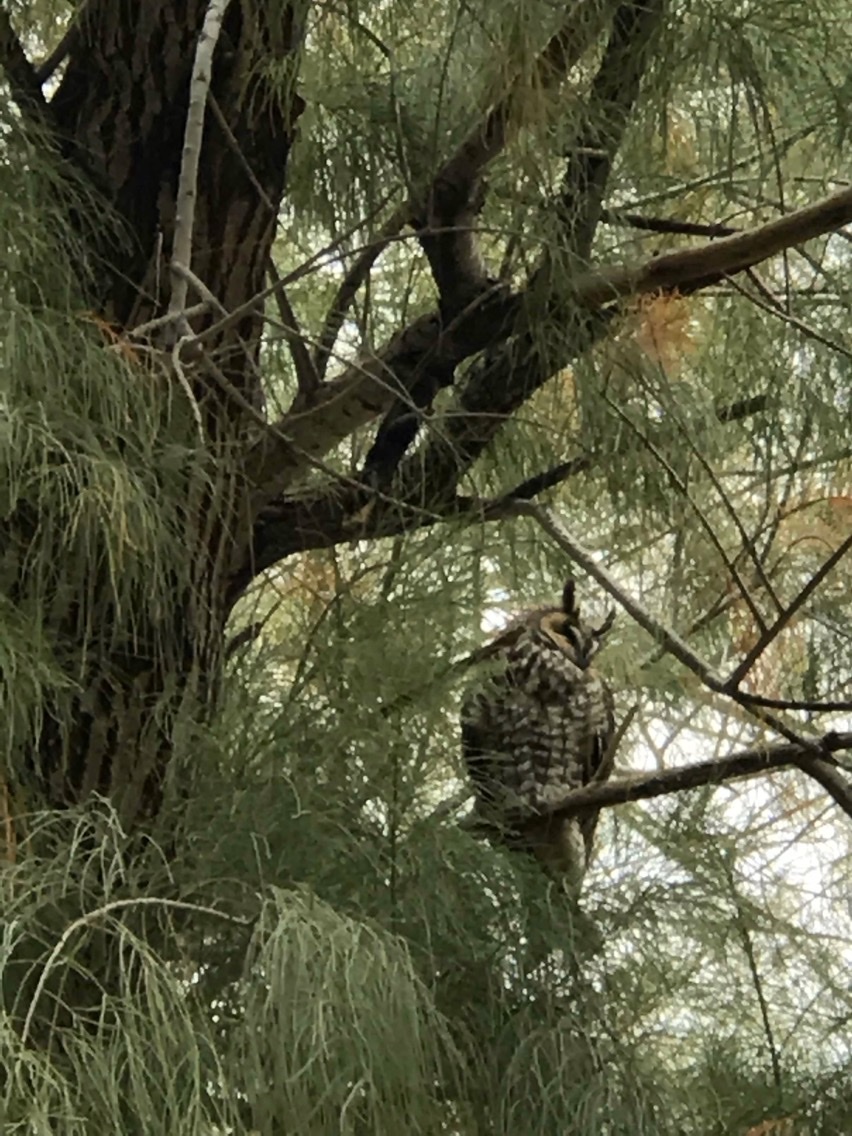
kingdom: Plantae
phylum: Tracheophyta
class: Magnoliopsida
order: Caryophyllales
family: Tamaricaceae
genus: Tamarix
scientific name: Tamarix aphylla
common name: Athel tamarisk
